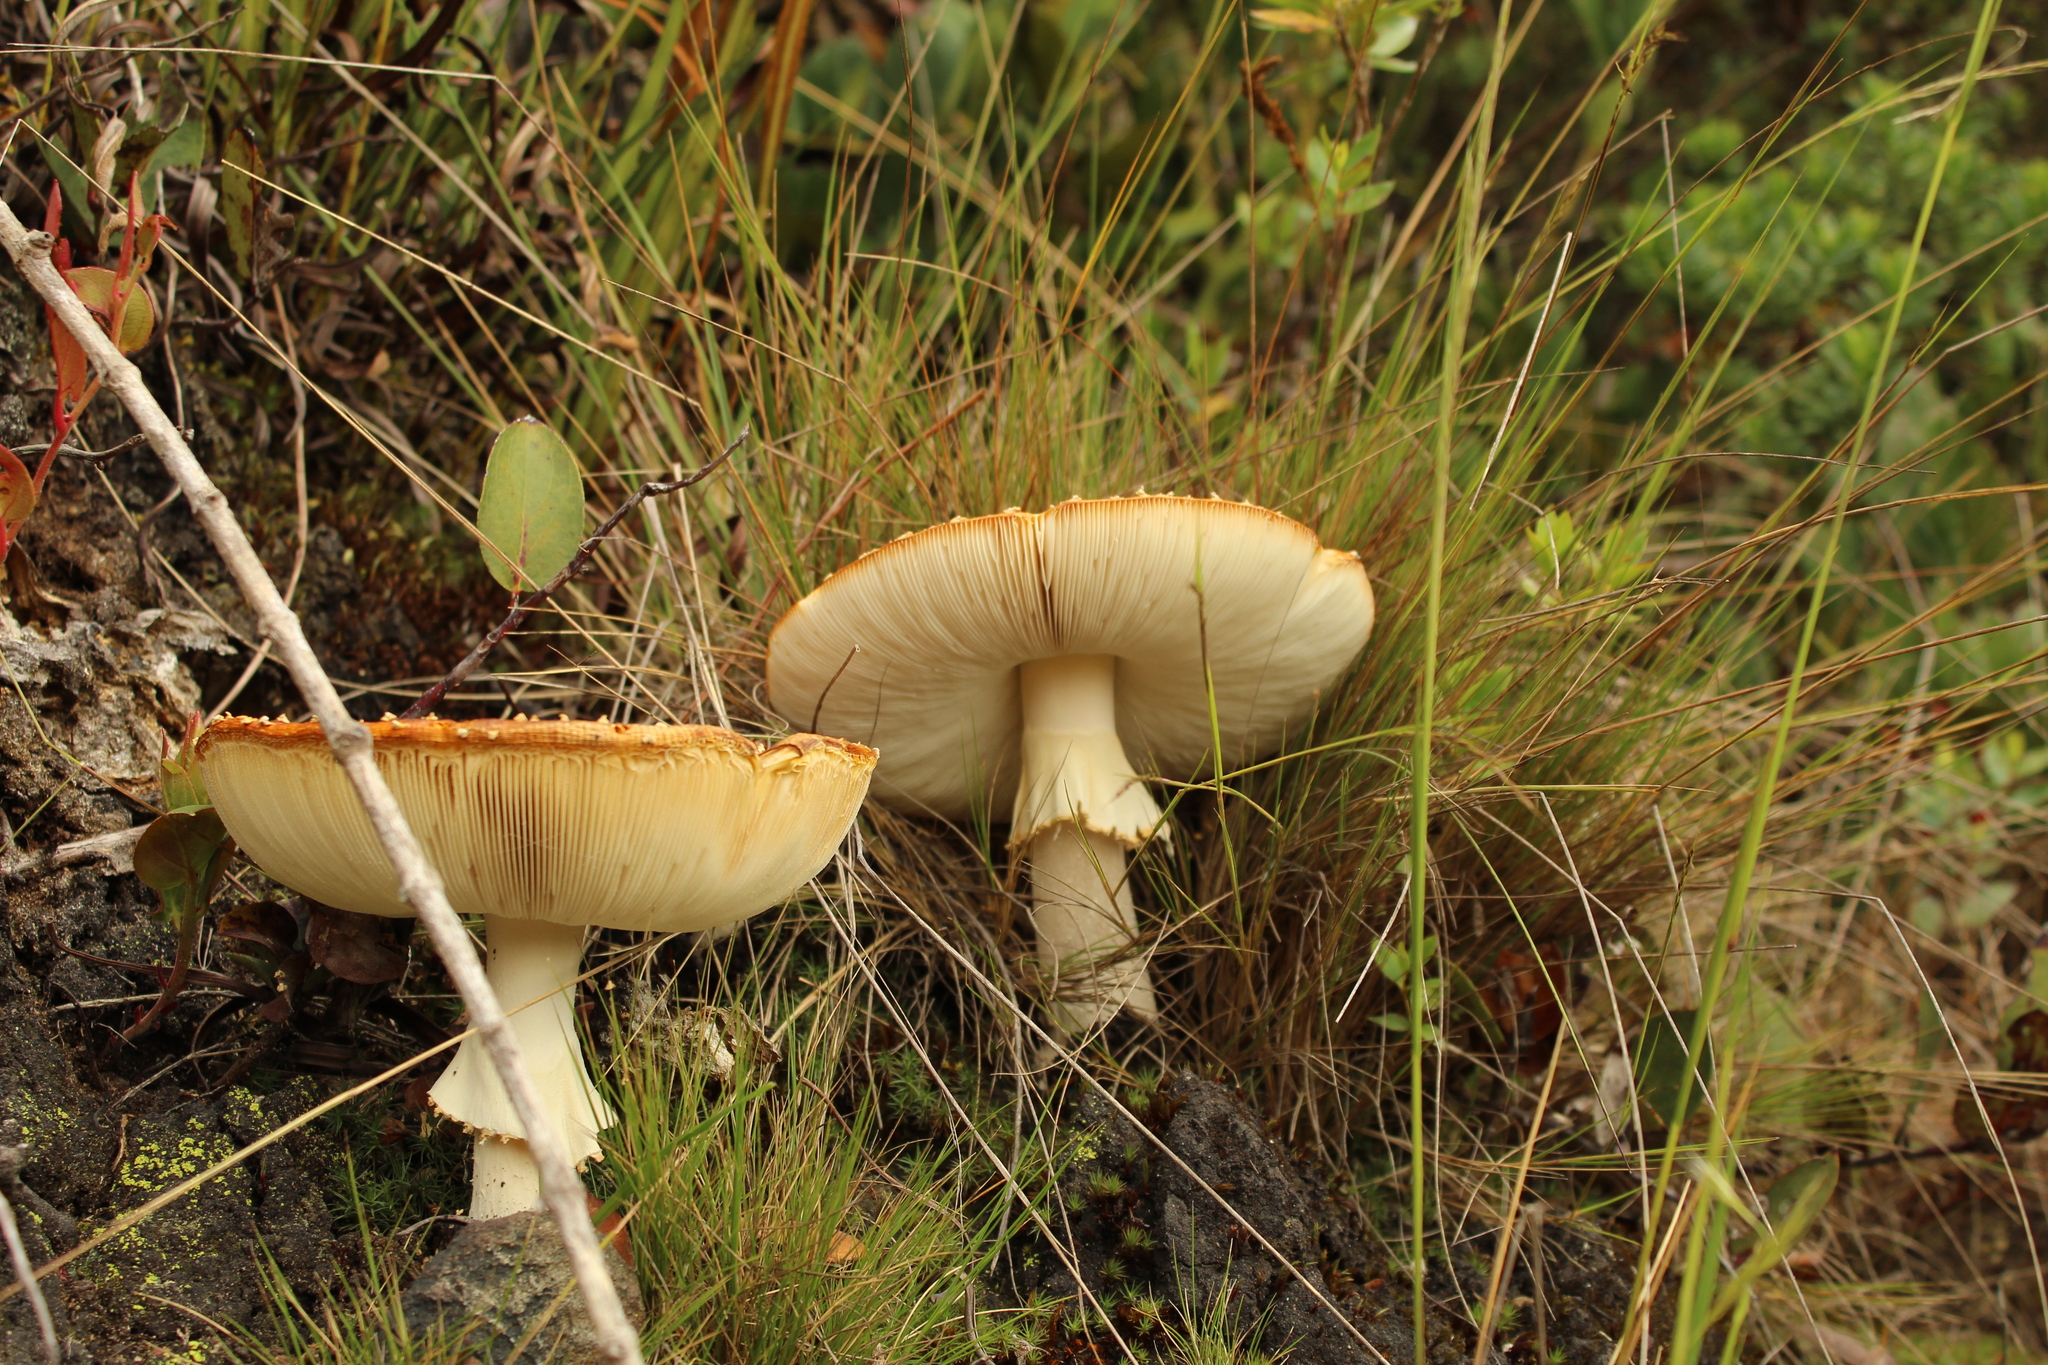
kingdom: Fungi
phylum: Basidiomycota
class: Agaricomycetes
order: Agaricales
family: Amanitaceae
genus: Amanita
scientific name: Amanita muscaria
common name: Fly agaric
